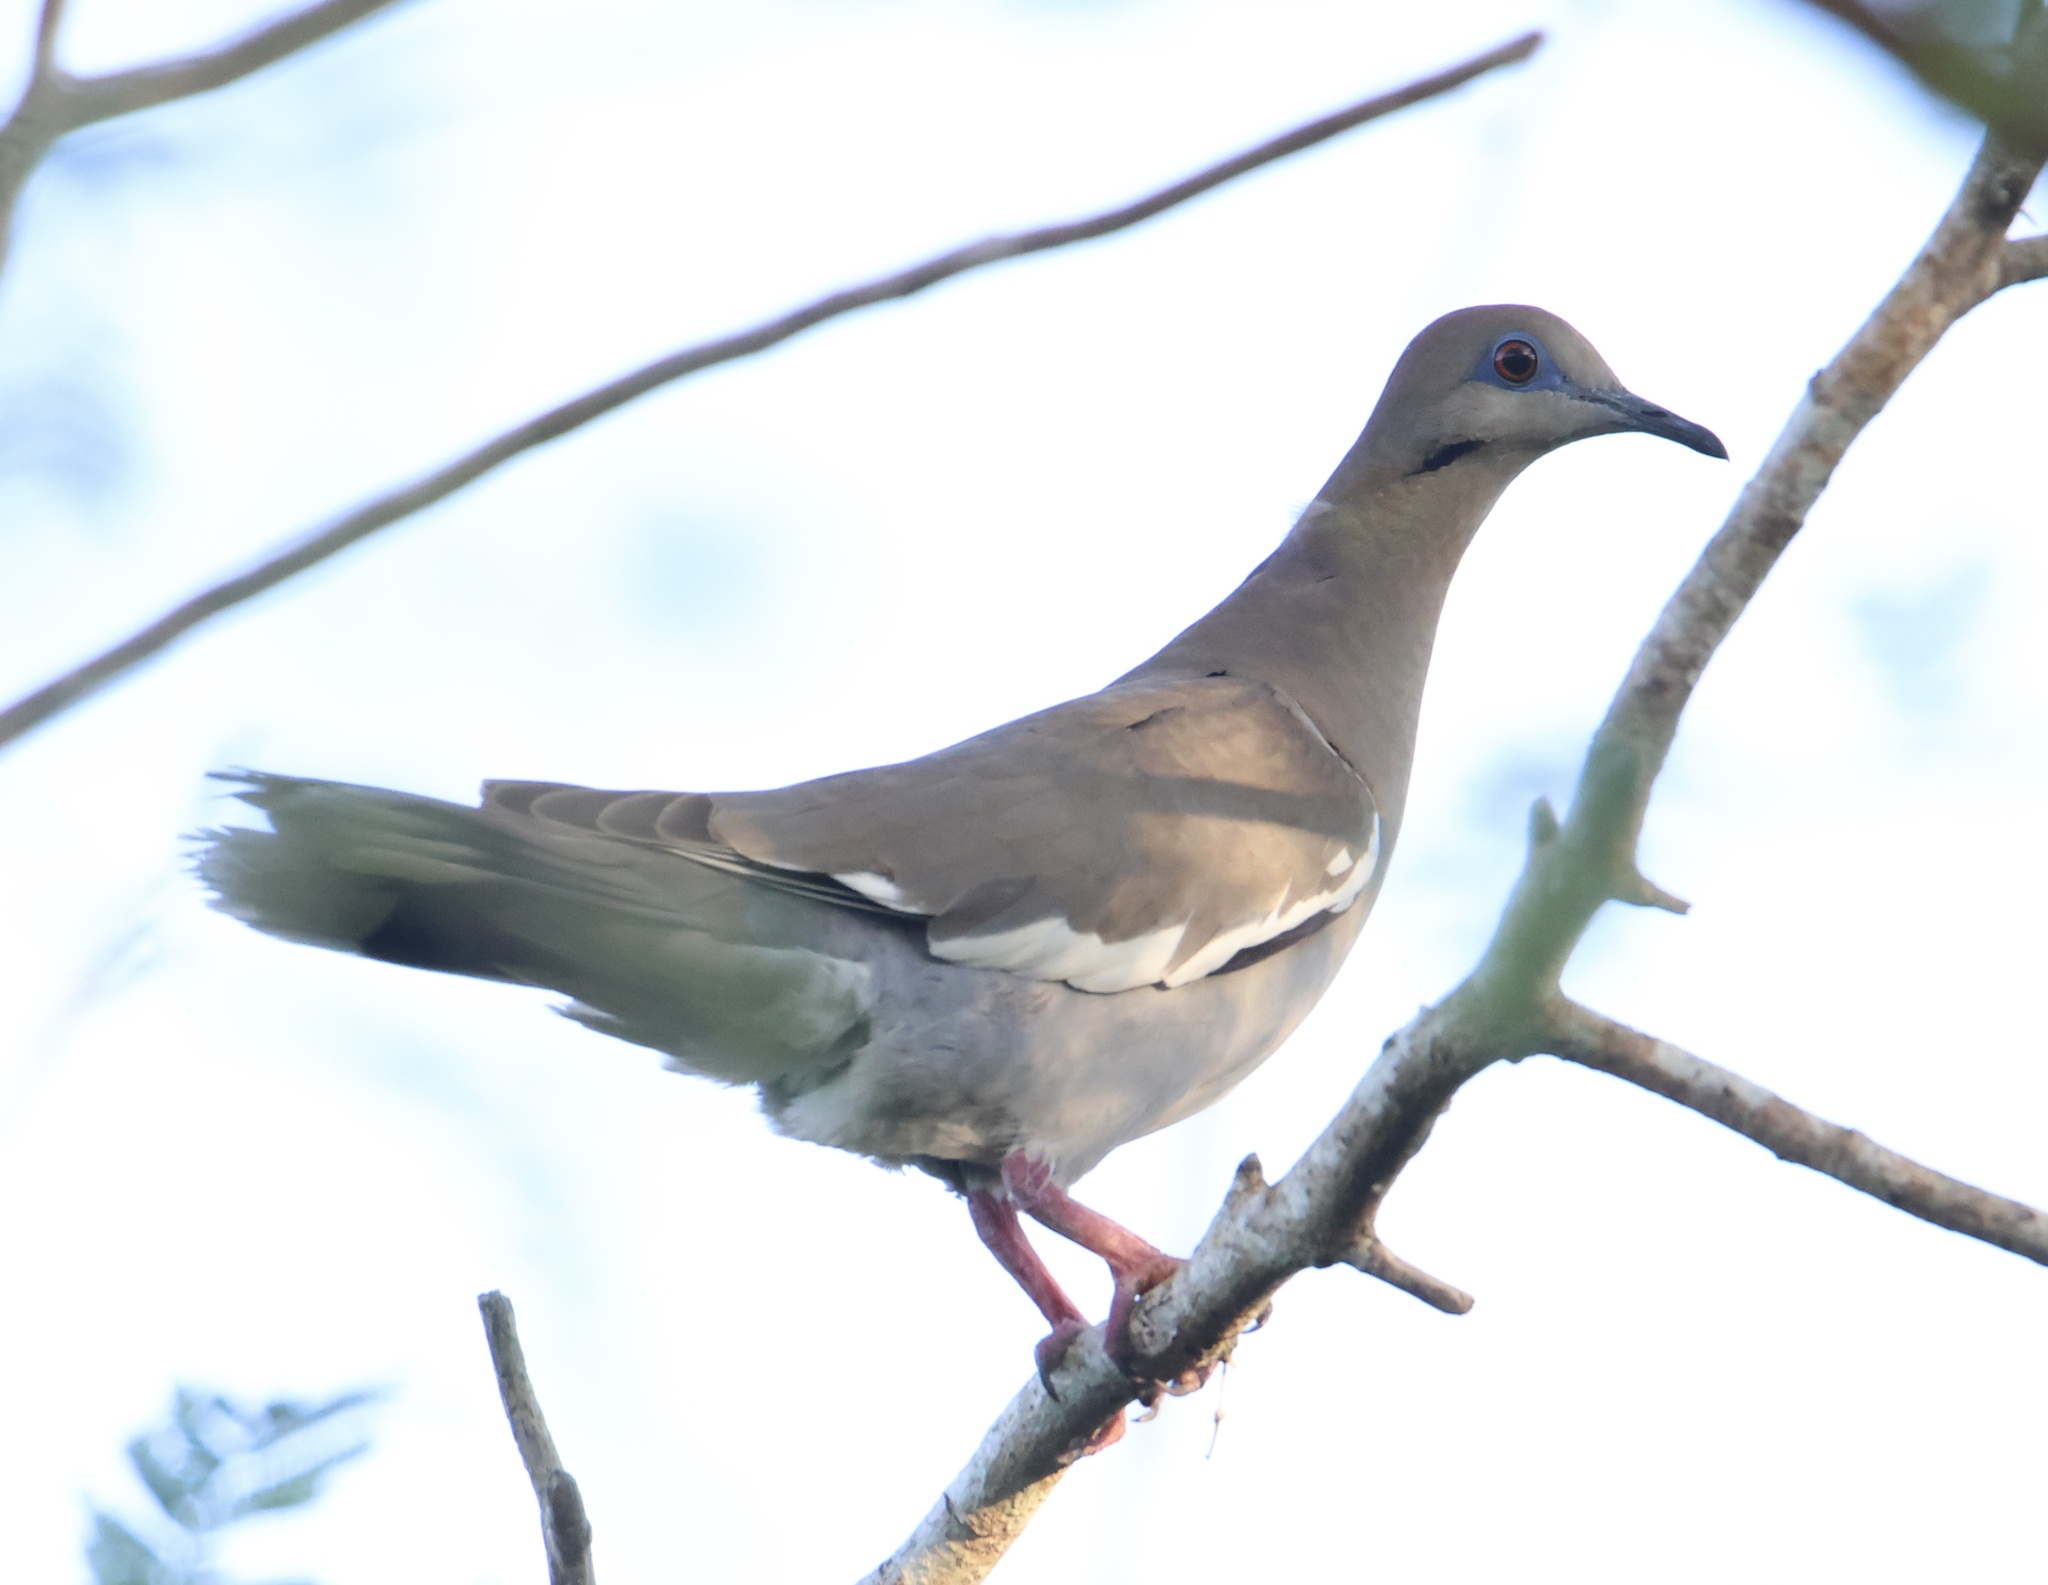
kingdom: Animalia
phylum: Chordata
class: Aves
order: Columbiformes
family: Columbidae
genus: Zenaida
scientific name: Zenaida asiatica
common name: White-winged dove
